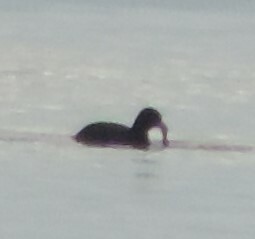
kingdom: Animalia
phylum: Chordata
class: Aves
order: Gruiformes
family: Rallidae
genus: Fulica
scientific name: Fulica americana
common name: American coot
